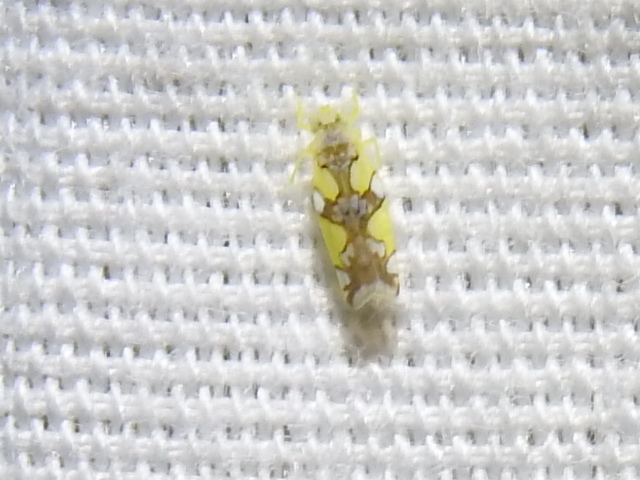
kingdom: Animalia
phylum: Arthropoda
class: Insecta
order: Hemiptera
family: Cicadellidae
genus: Protalebrella
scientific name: Protalebrella conica
